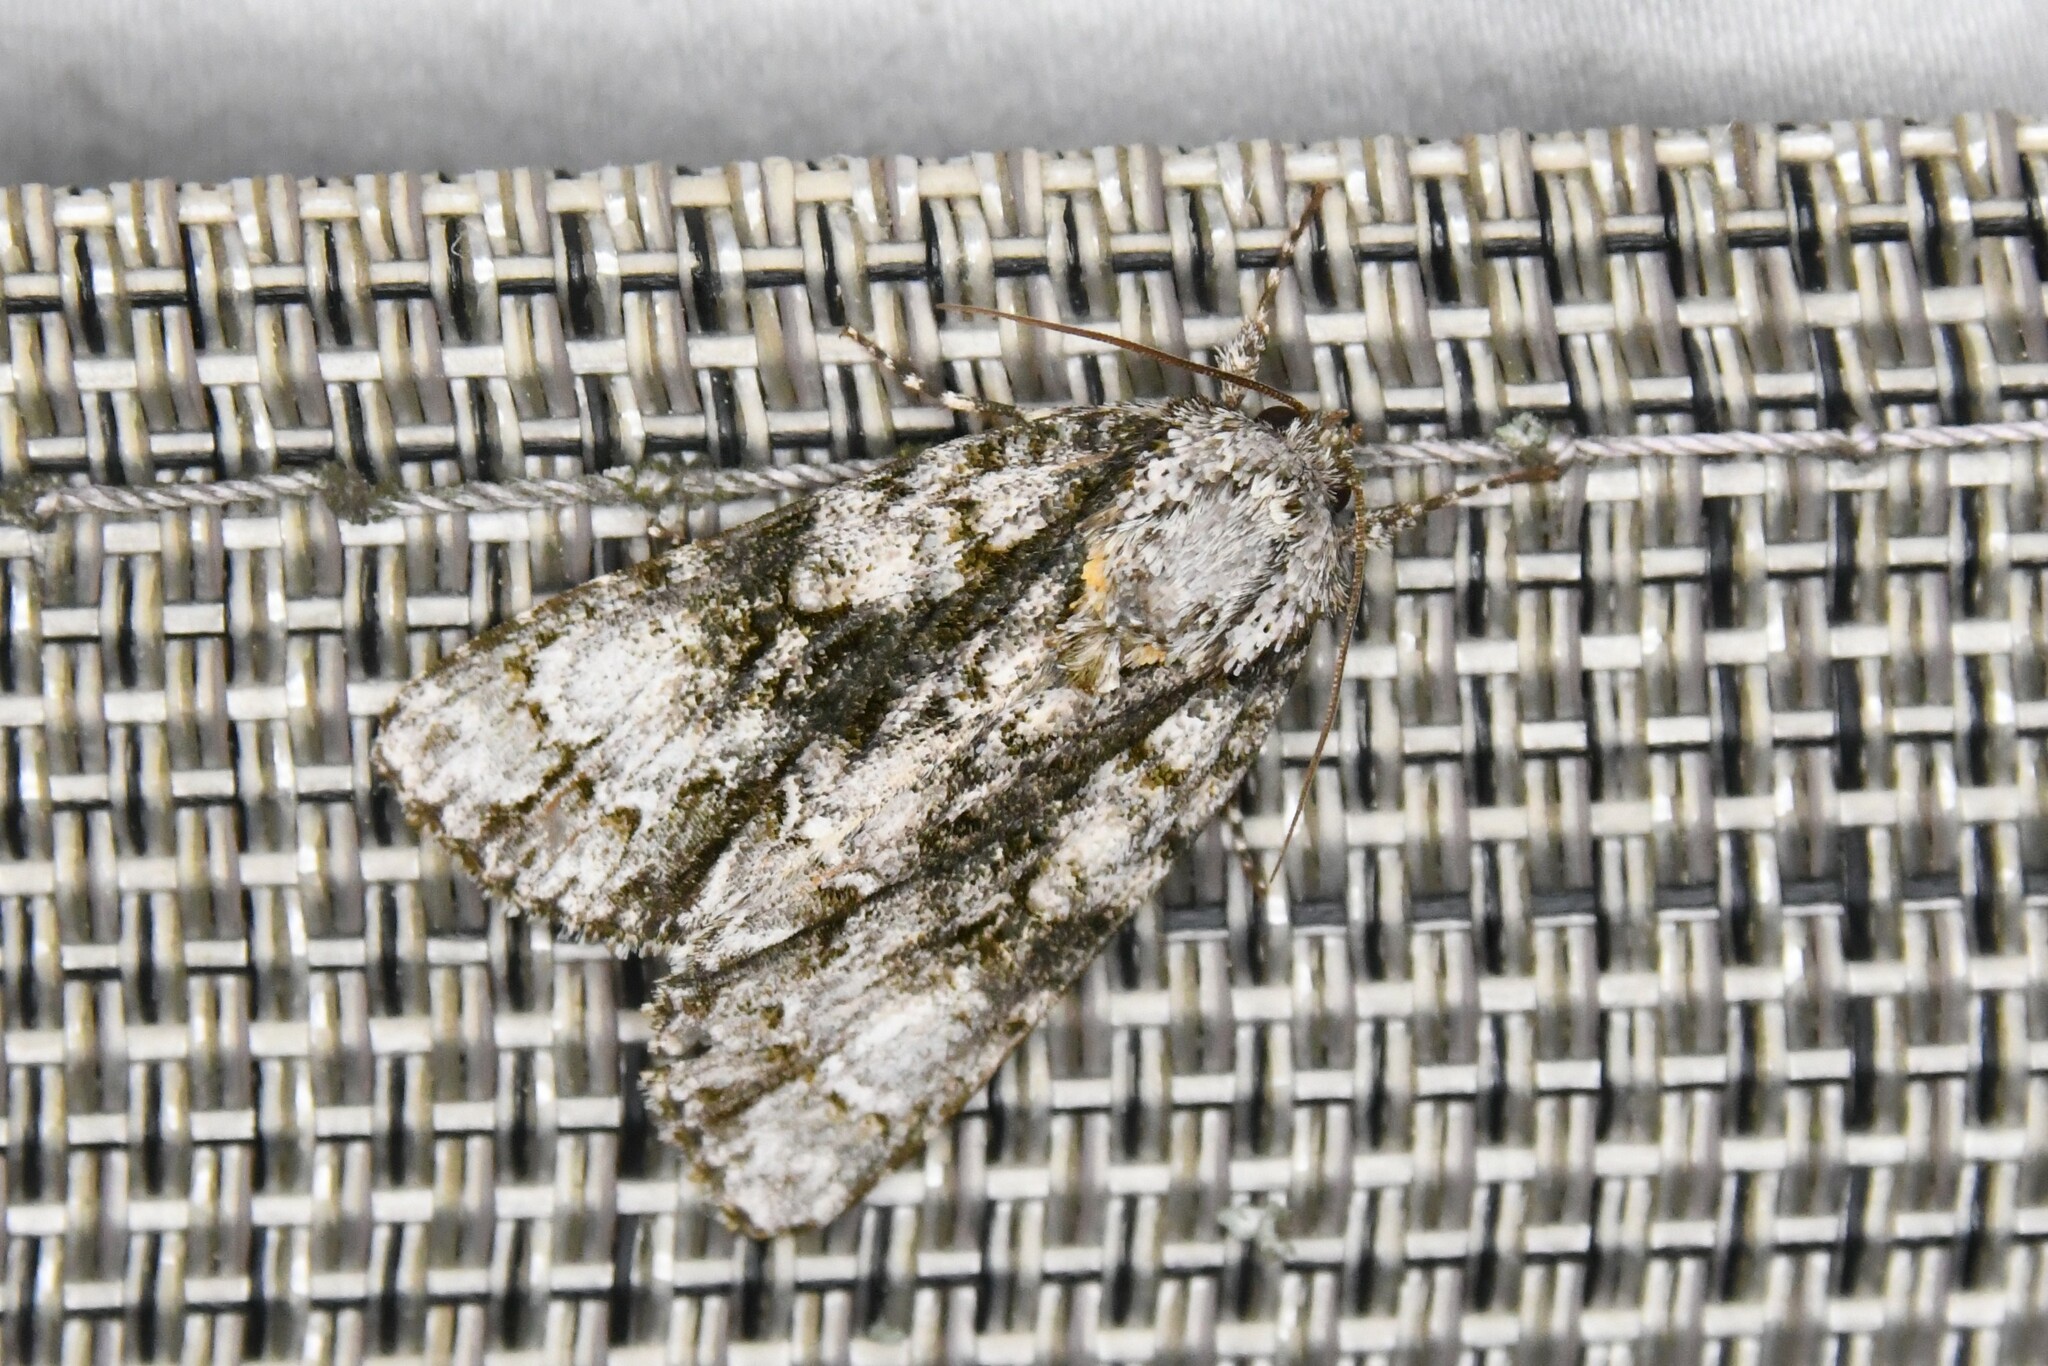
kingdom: Animalia
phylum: Arthropoda
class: Insecta
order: Lepidoptera
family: Noctuidae
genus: Acronicta
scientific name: Acronicta superans
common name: Splendid dagger
